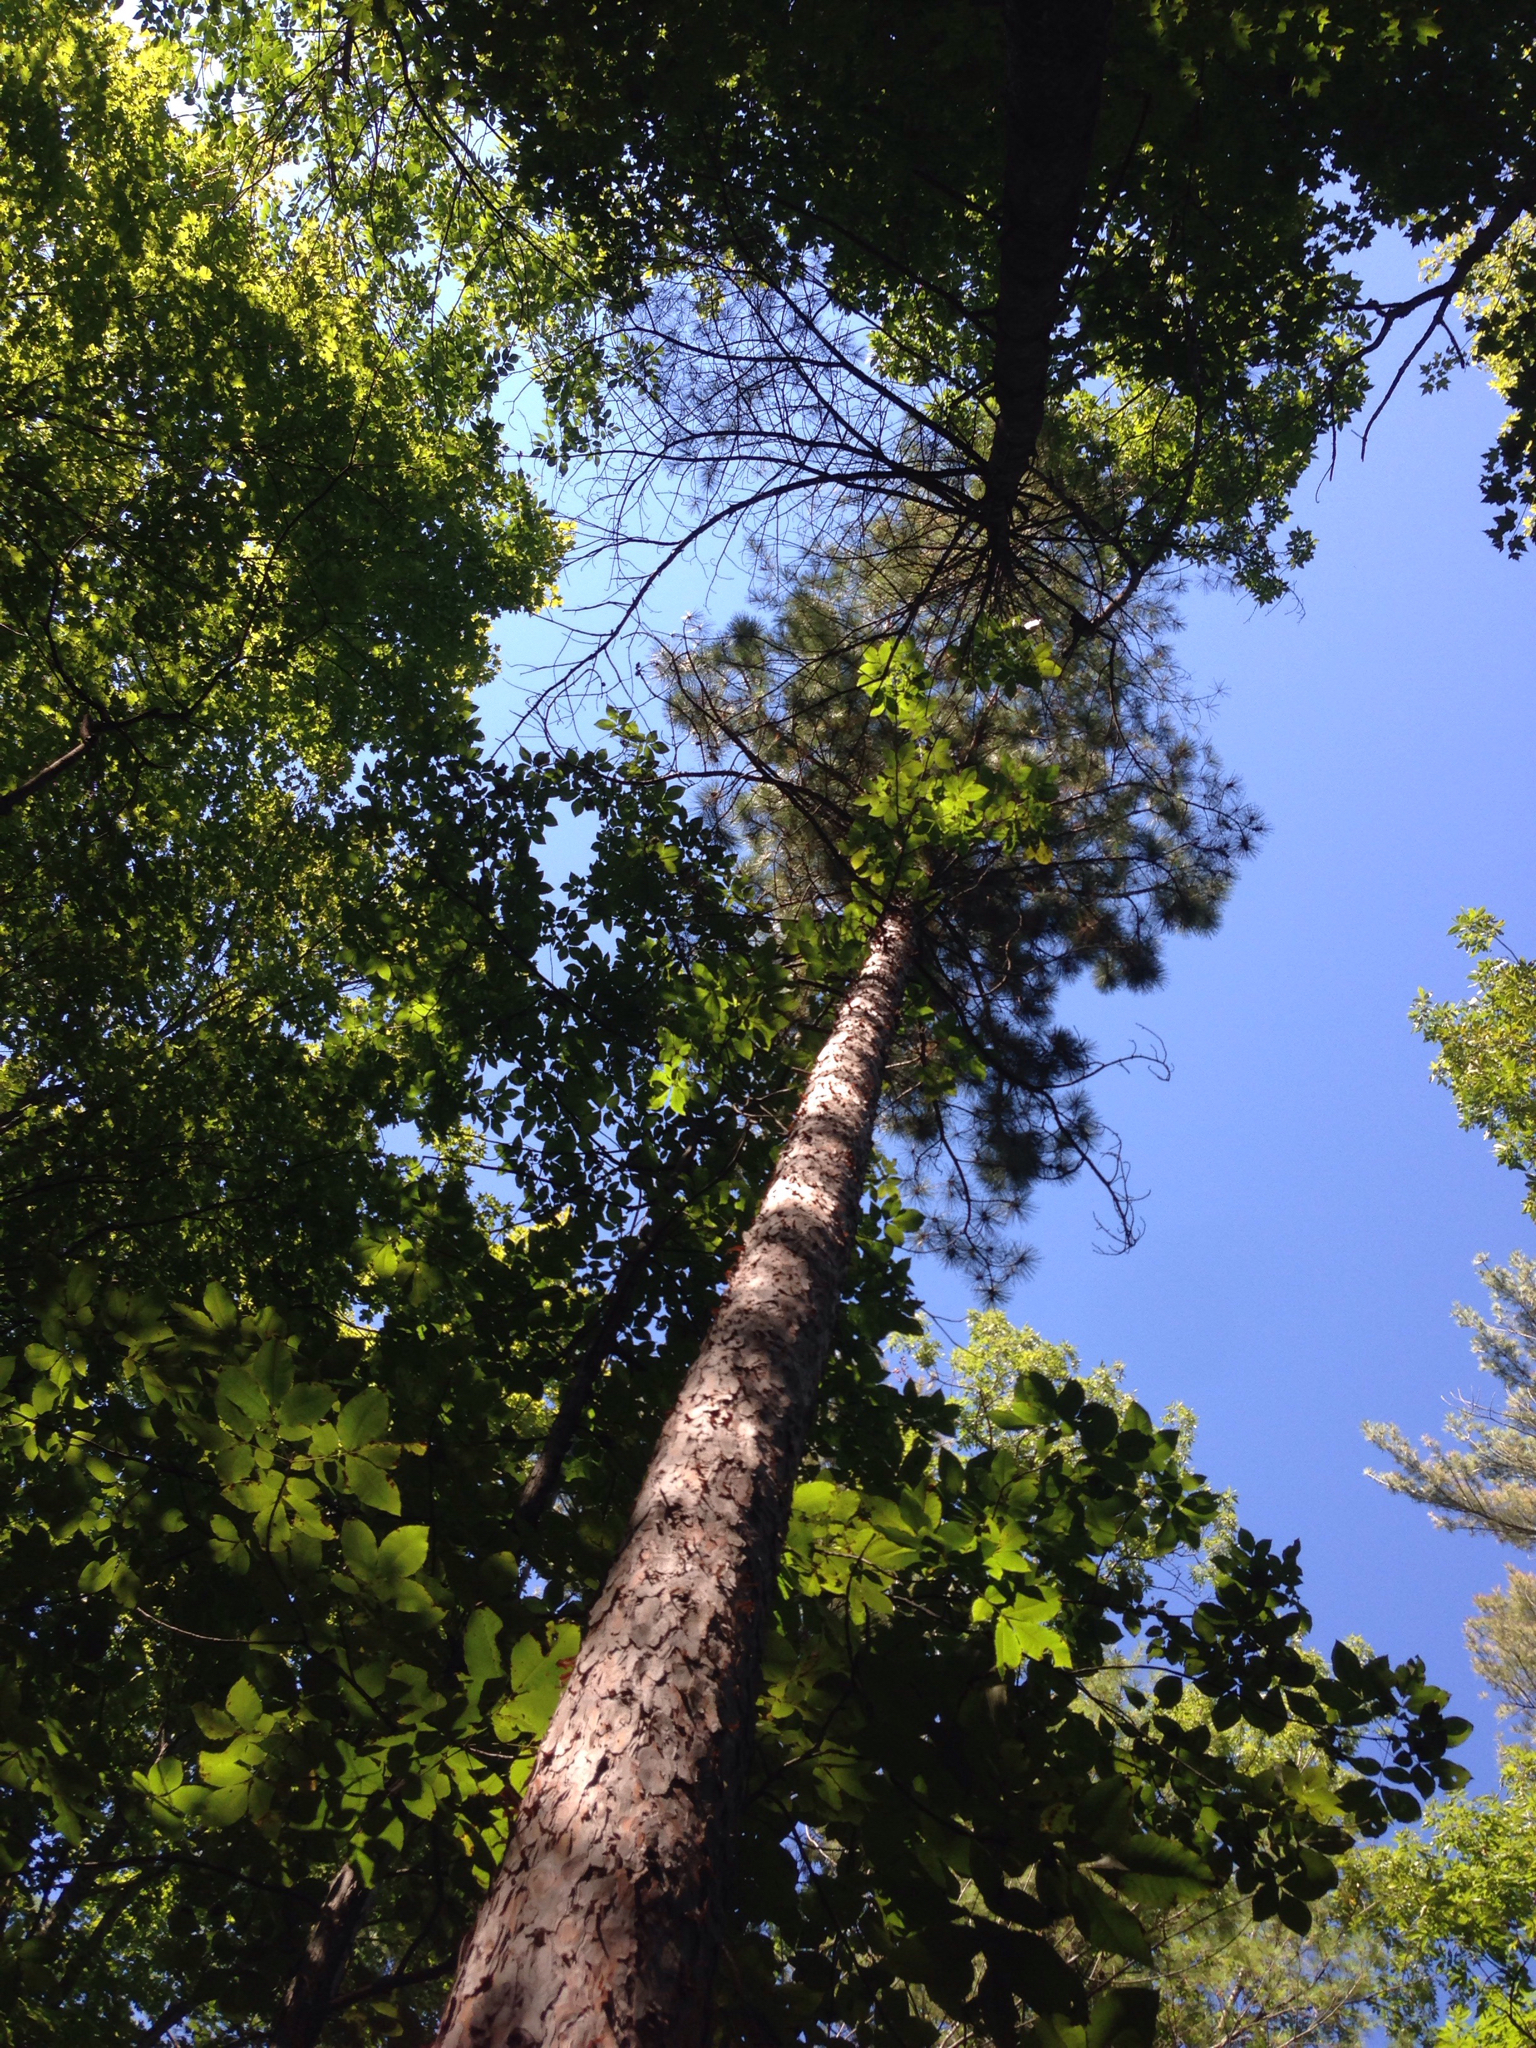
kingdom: Plantae
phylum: Tracheophyta
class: Pinopsida
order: Pinales
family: Pinaceae
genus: Pinus
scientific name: Pinus resinosa
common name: Norway pine
